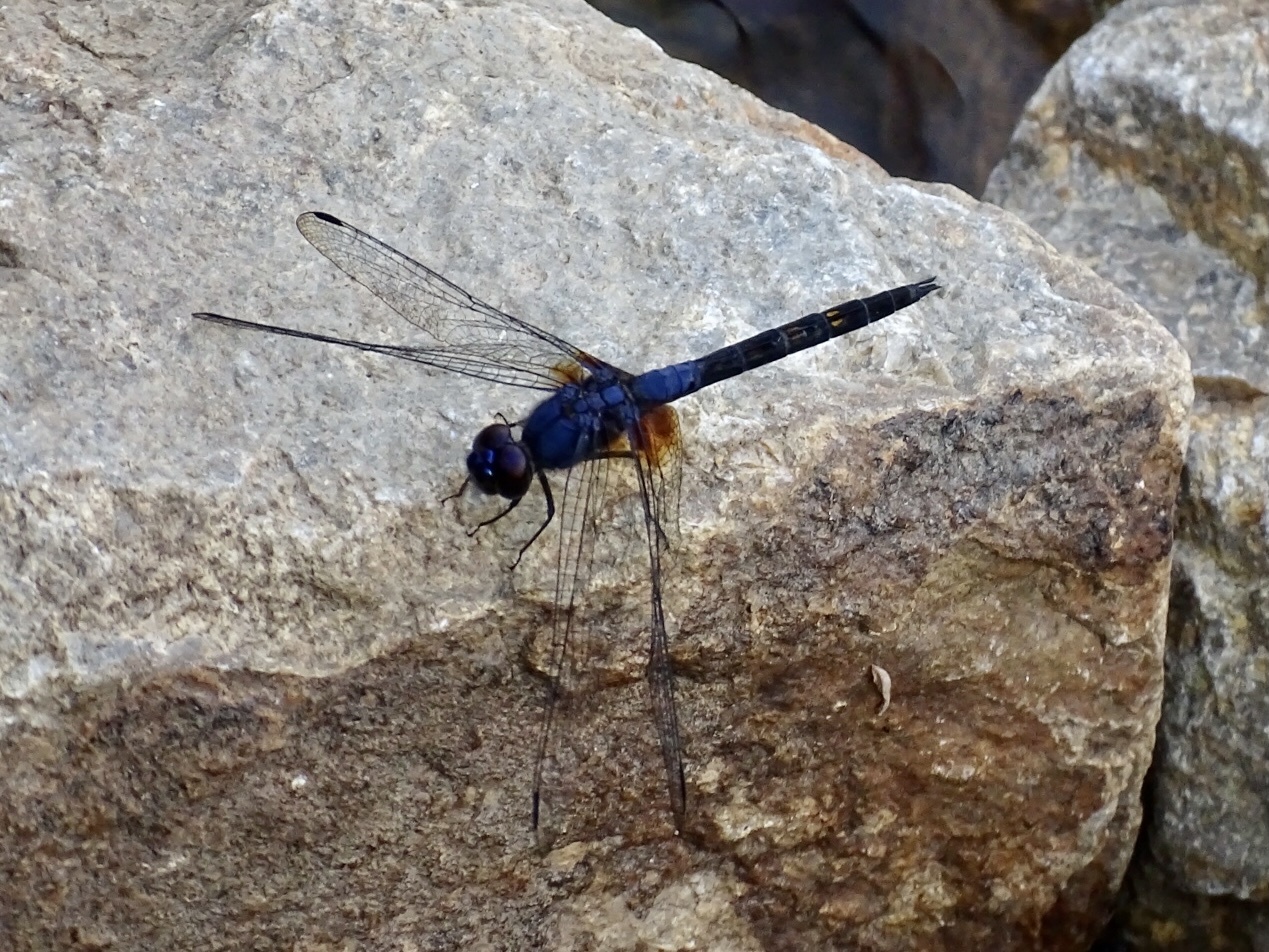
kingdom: Animalia
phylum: Arthropoda
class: Insecta
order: Odonata
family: Libellulidae
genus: Trithemis
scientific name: Trithemis festiva
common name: Indigo dropwing
